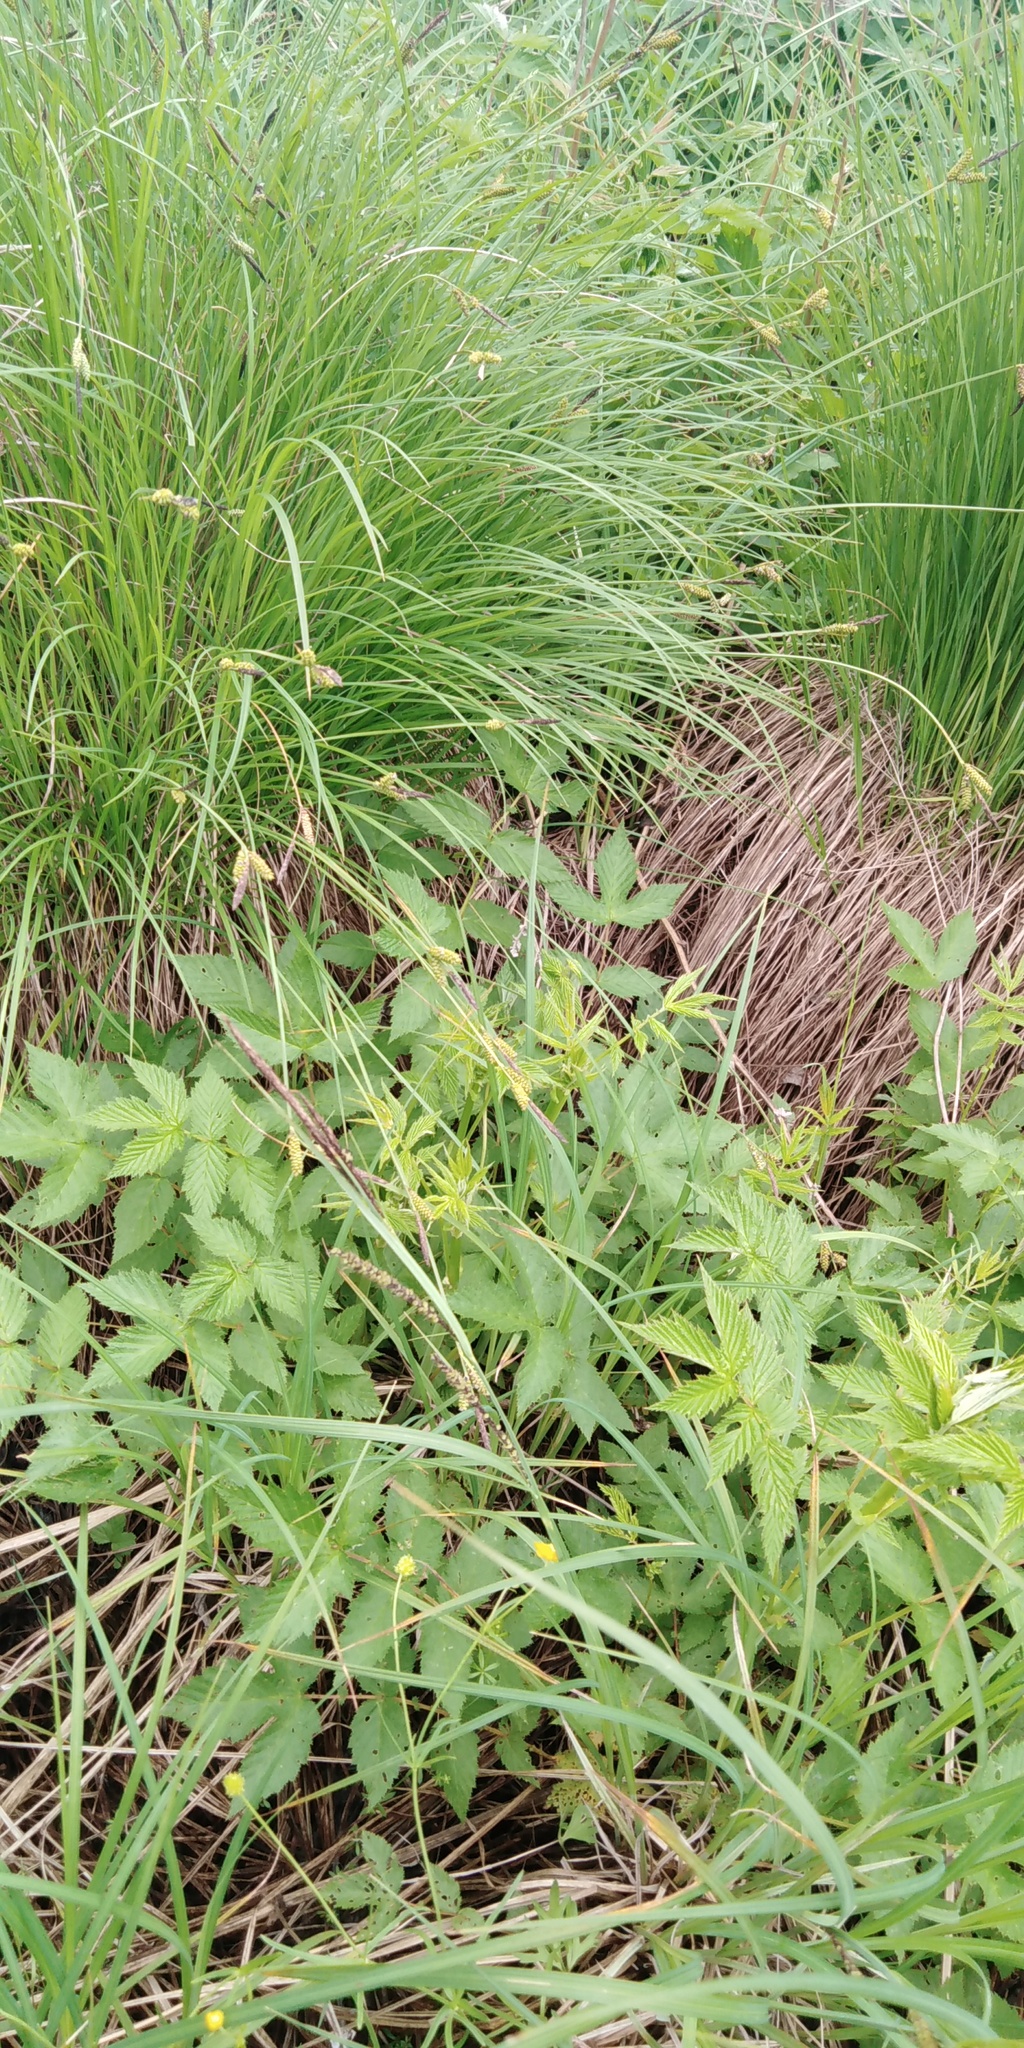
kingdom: Plantae
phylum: Tracheophyta
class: Liliopsida
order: Poales
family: Cyperaceae
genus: Carex
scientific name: Carex cespitosa
